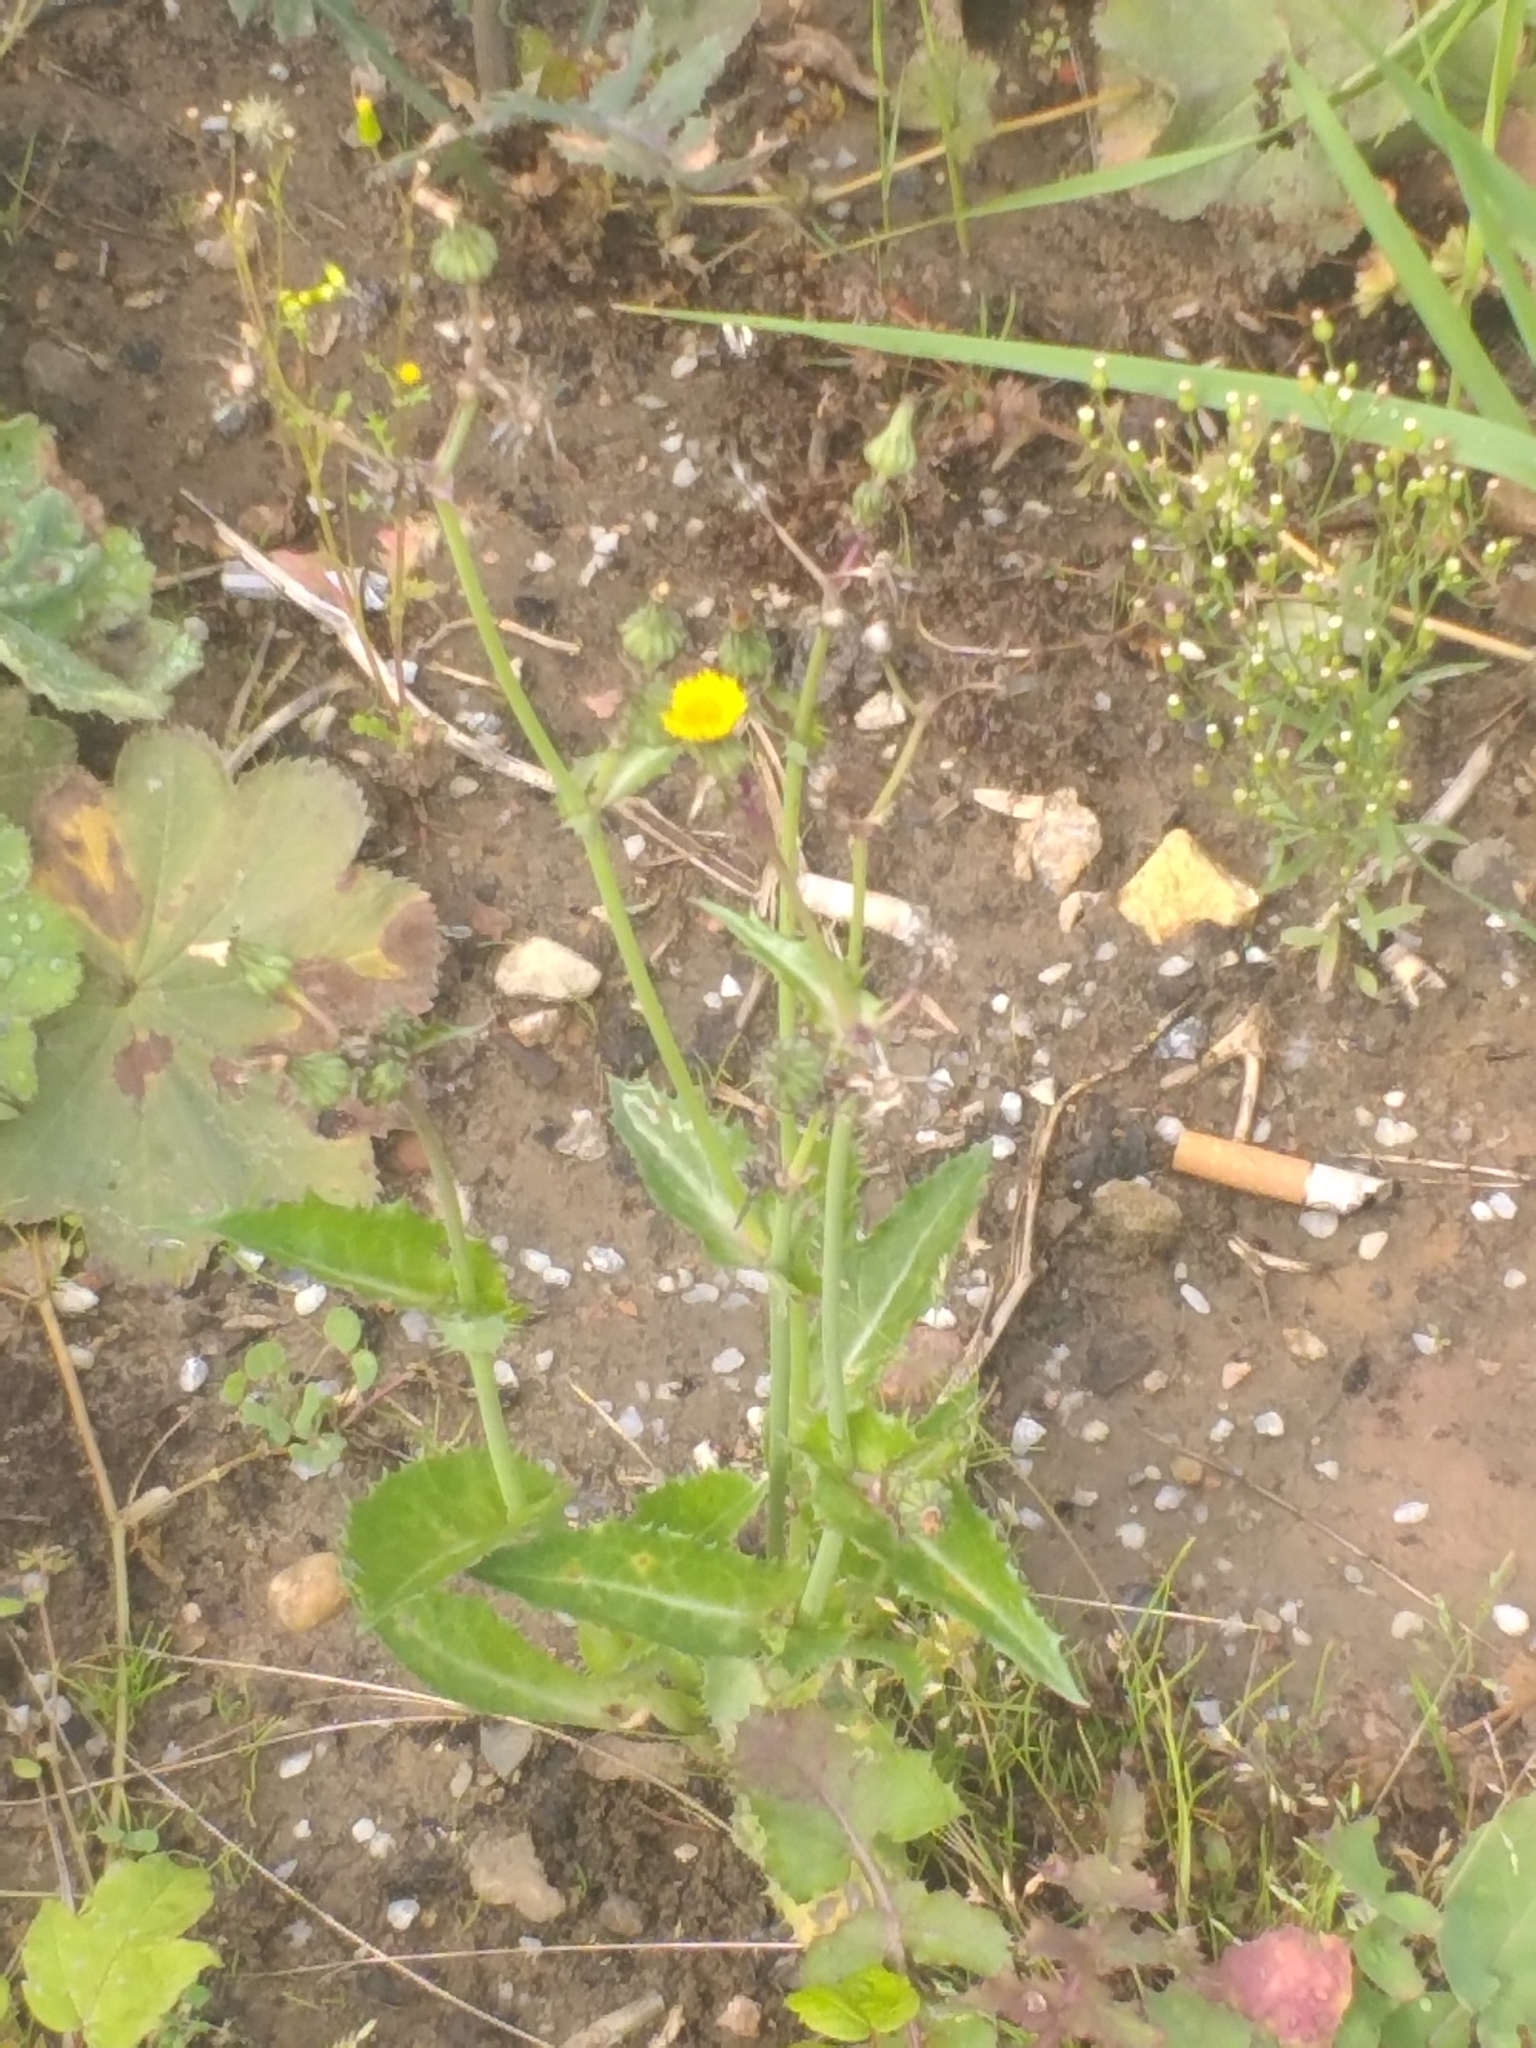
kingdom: Plantae
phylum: Tracheophyta
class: Magnoliopsida
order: Asterales
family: Asteraceae
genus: Sonchus
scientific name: Sonchus asper
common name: Prickly sow-thistle
